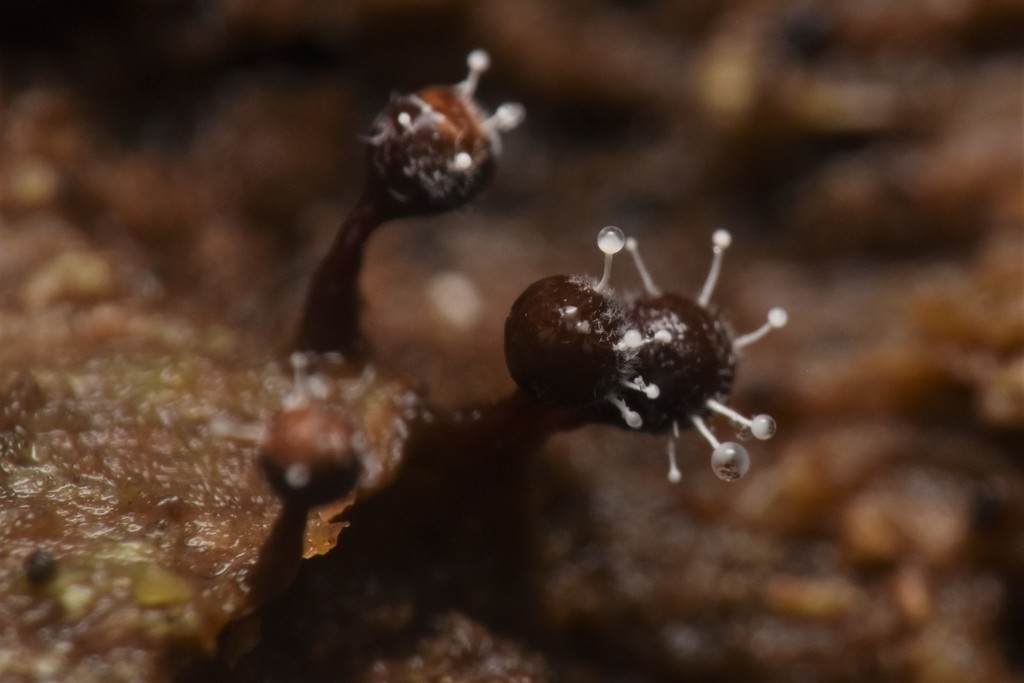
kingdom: Fungi
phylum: Ascomycota
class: Sordariomycetes
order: Hypocreales
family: Ophiocordycipitaceae
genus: Polycephalomyces
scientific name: Polycephalomyces tomentosus
